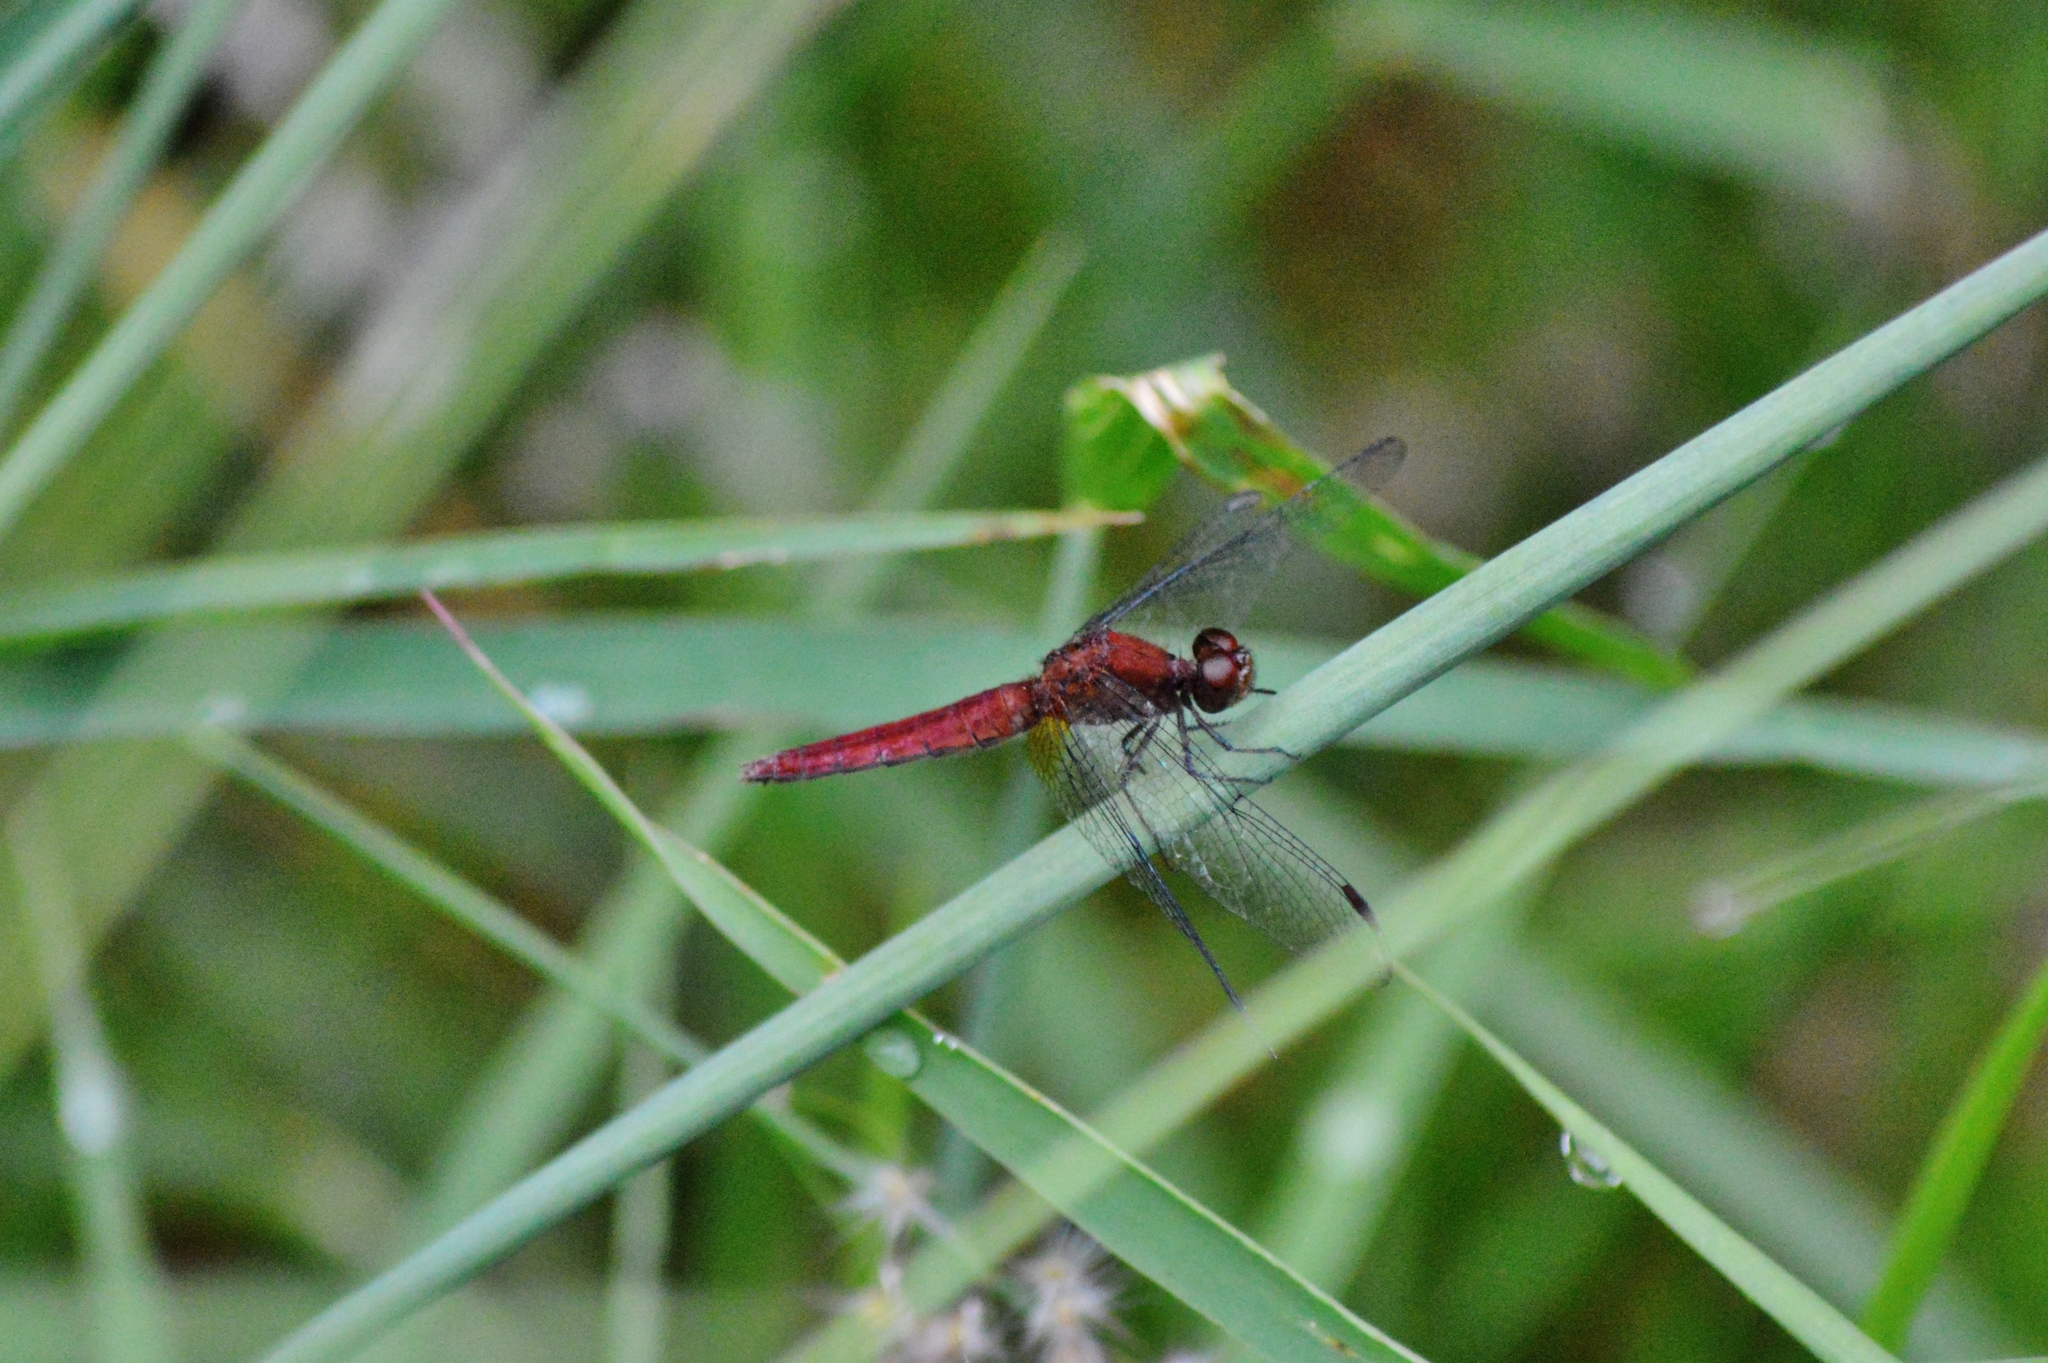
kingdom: Animalia
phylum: Arthropoda
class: Insecta
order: Odonata
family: Libellulidae
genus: Erythrodiplax
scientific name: Erythrodiplax melanorubra
